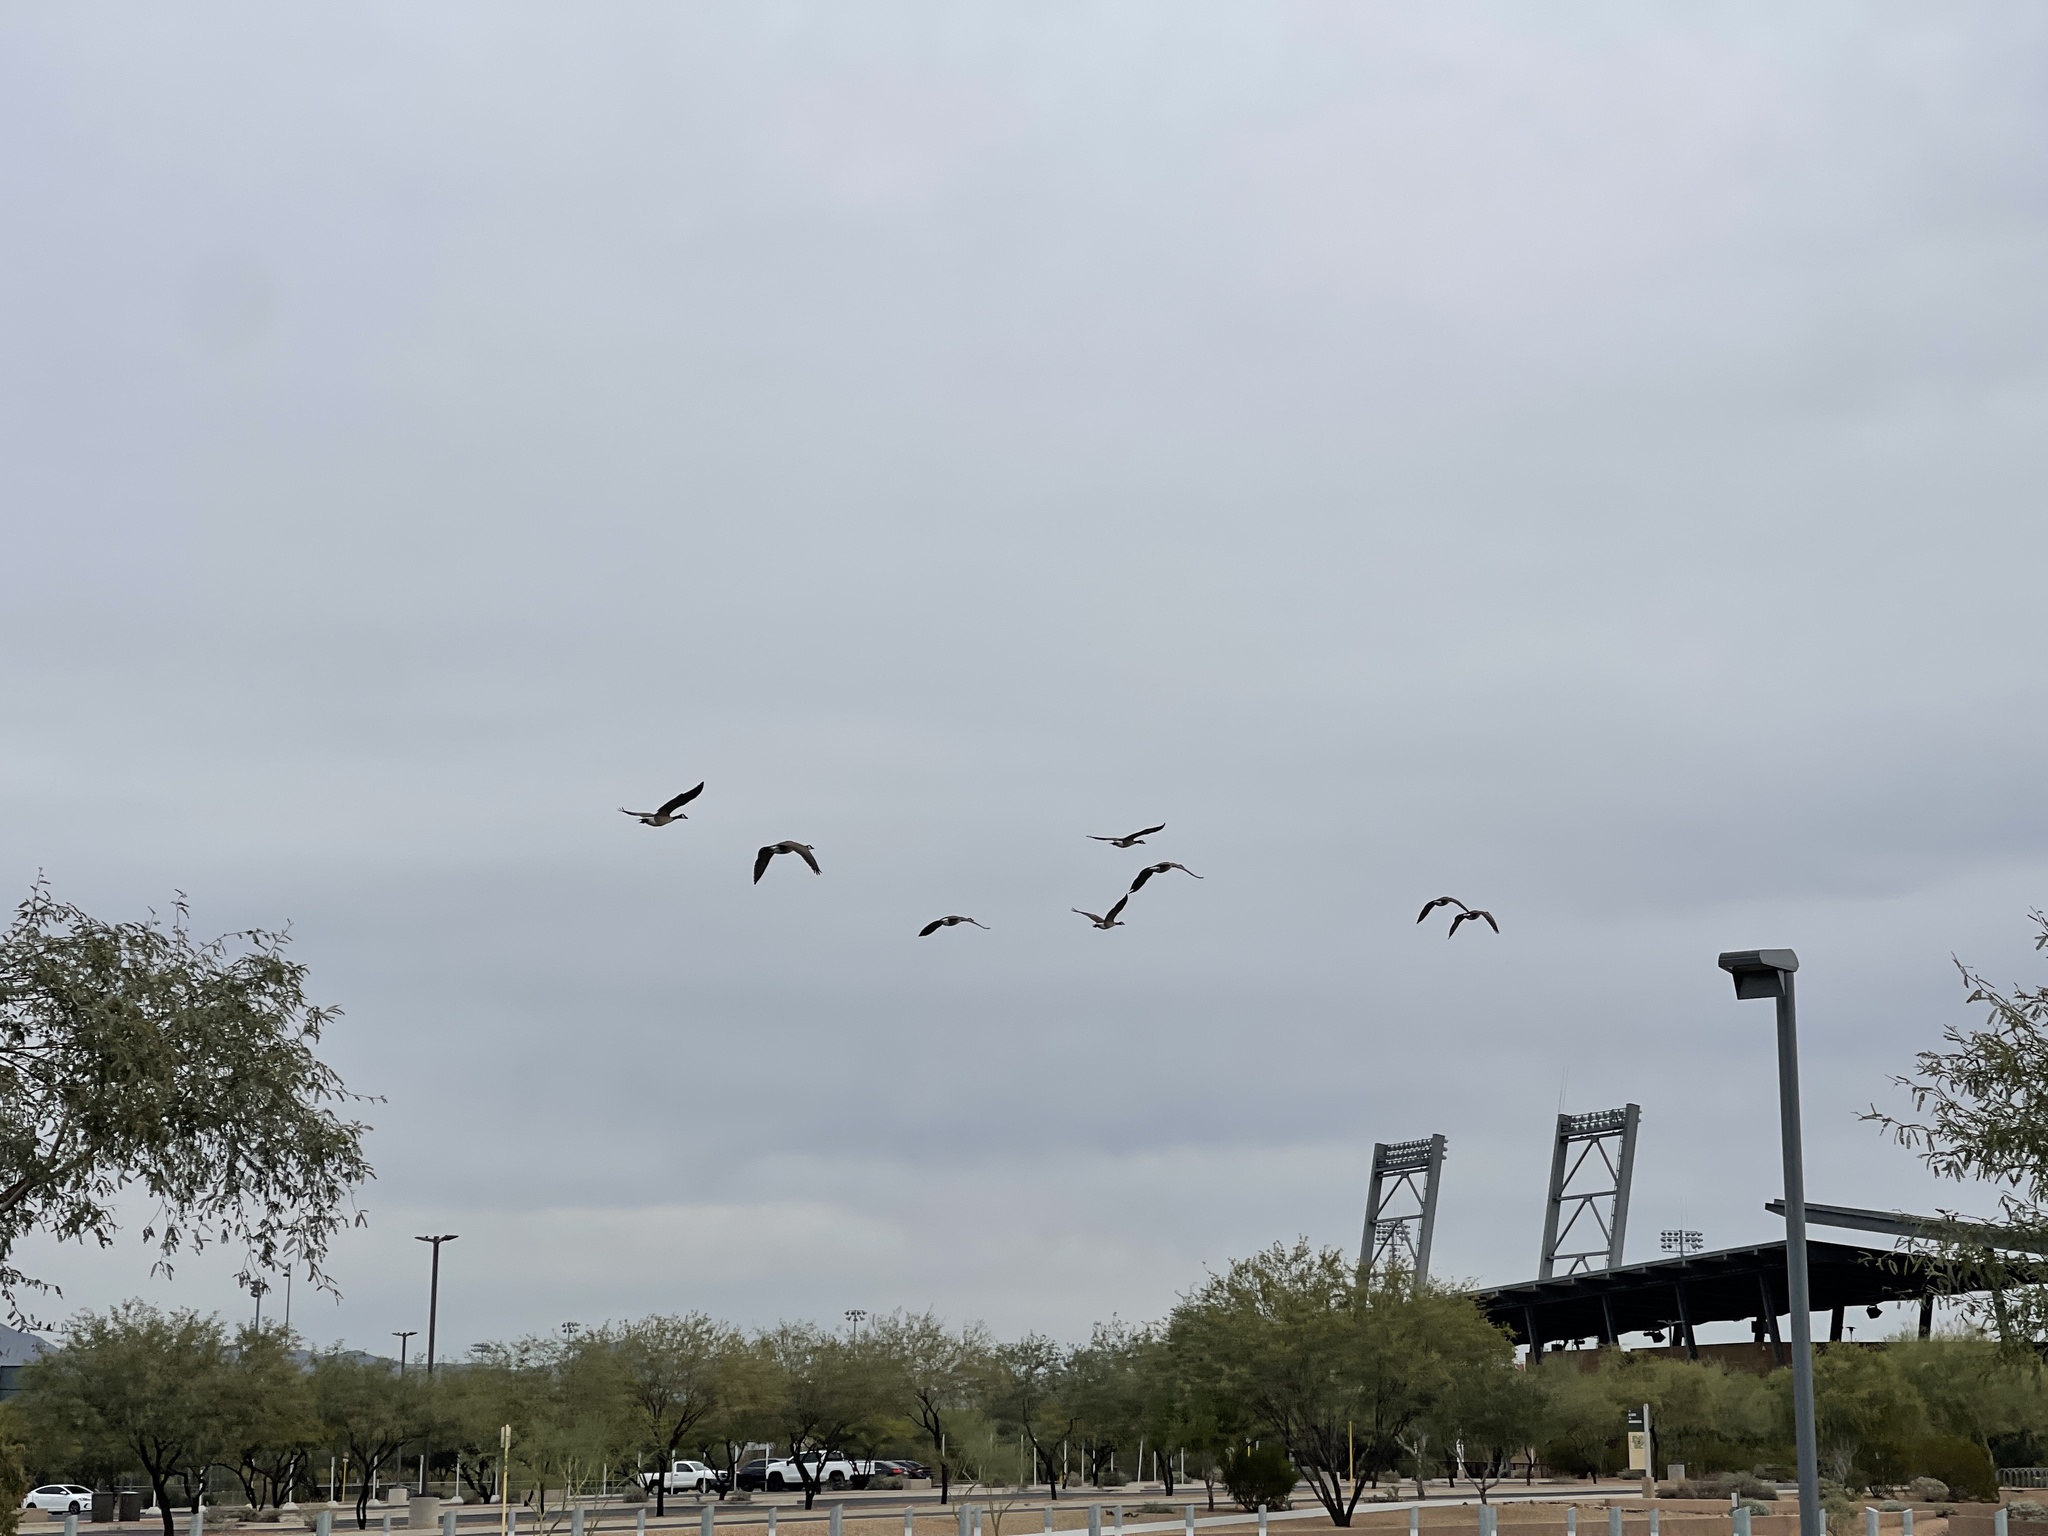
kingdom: Animalia
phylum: Chordata
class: Aves
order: Anseriformes
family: Anatidae
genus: Branta
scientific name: Branta canadensis
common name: Canada goose
